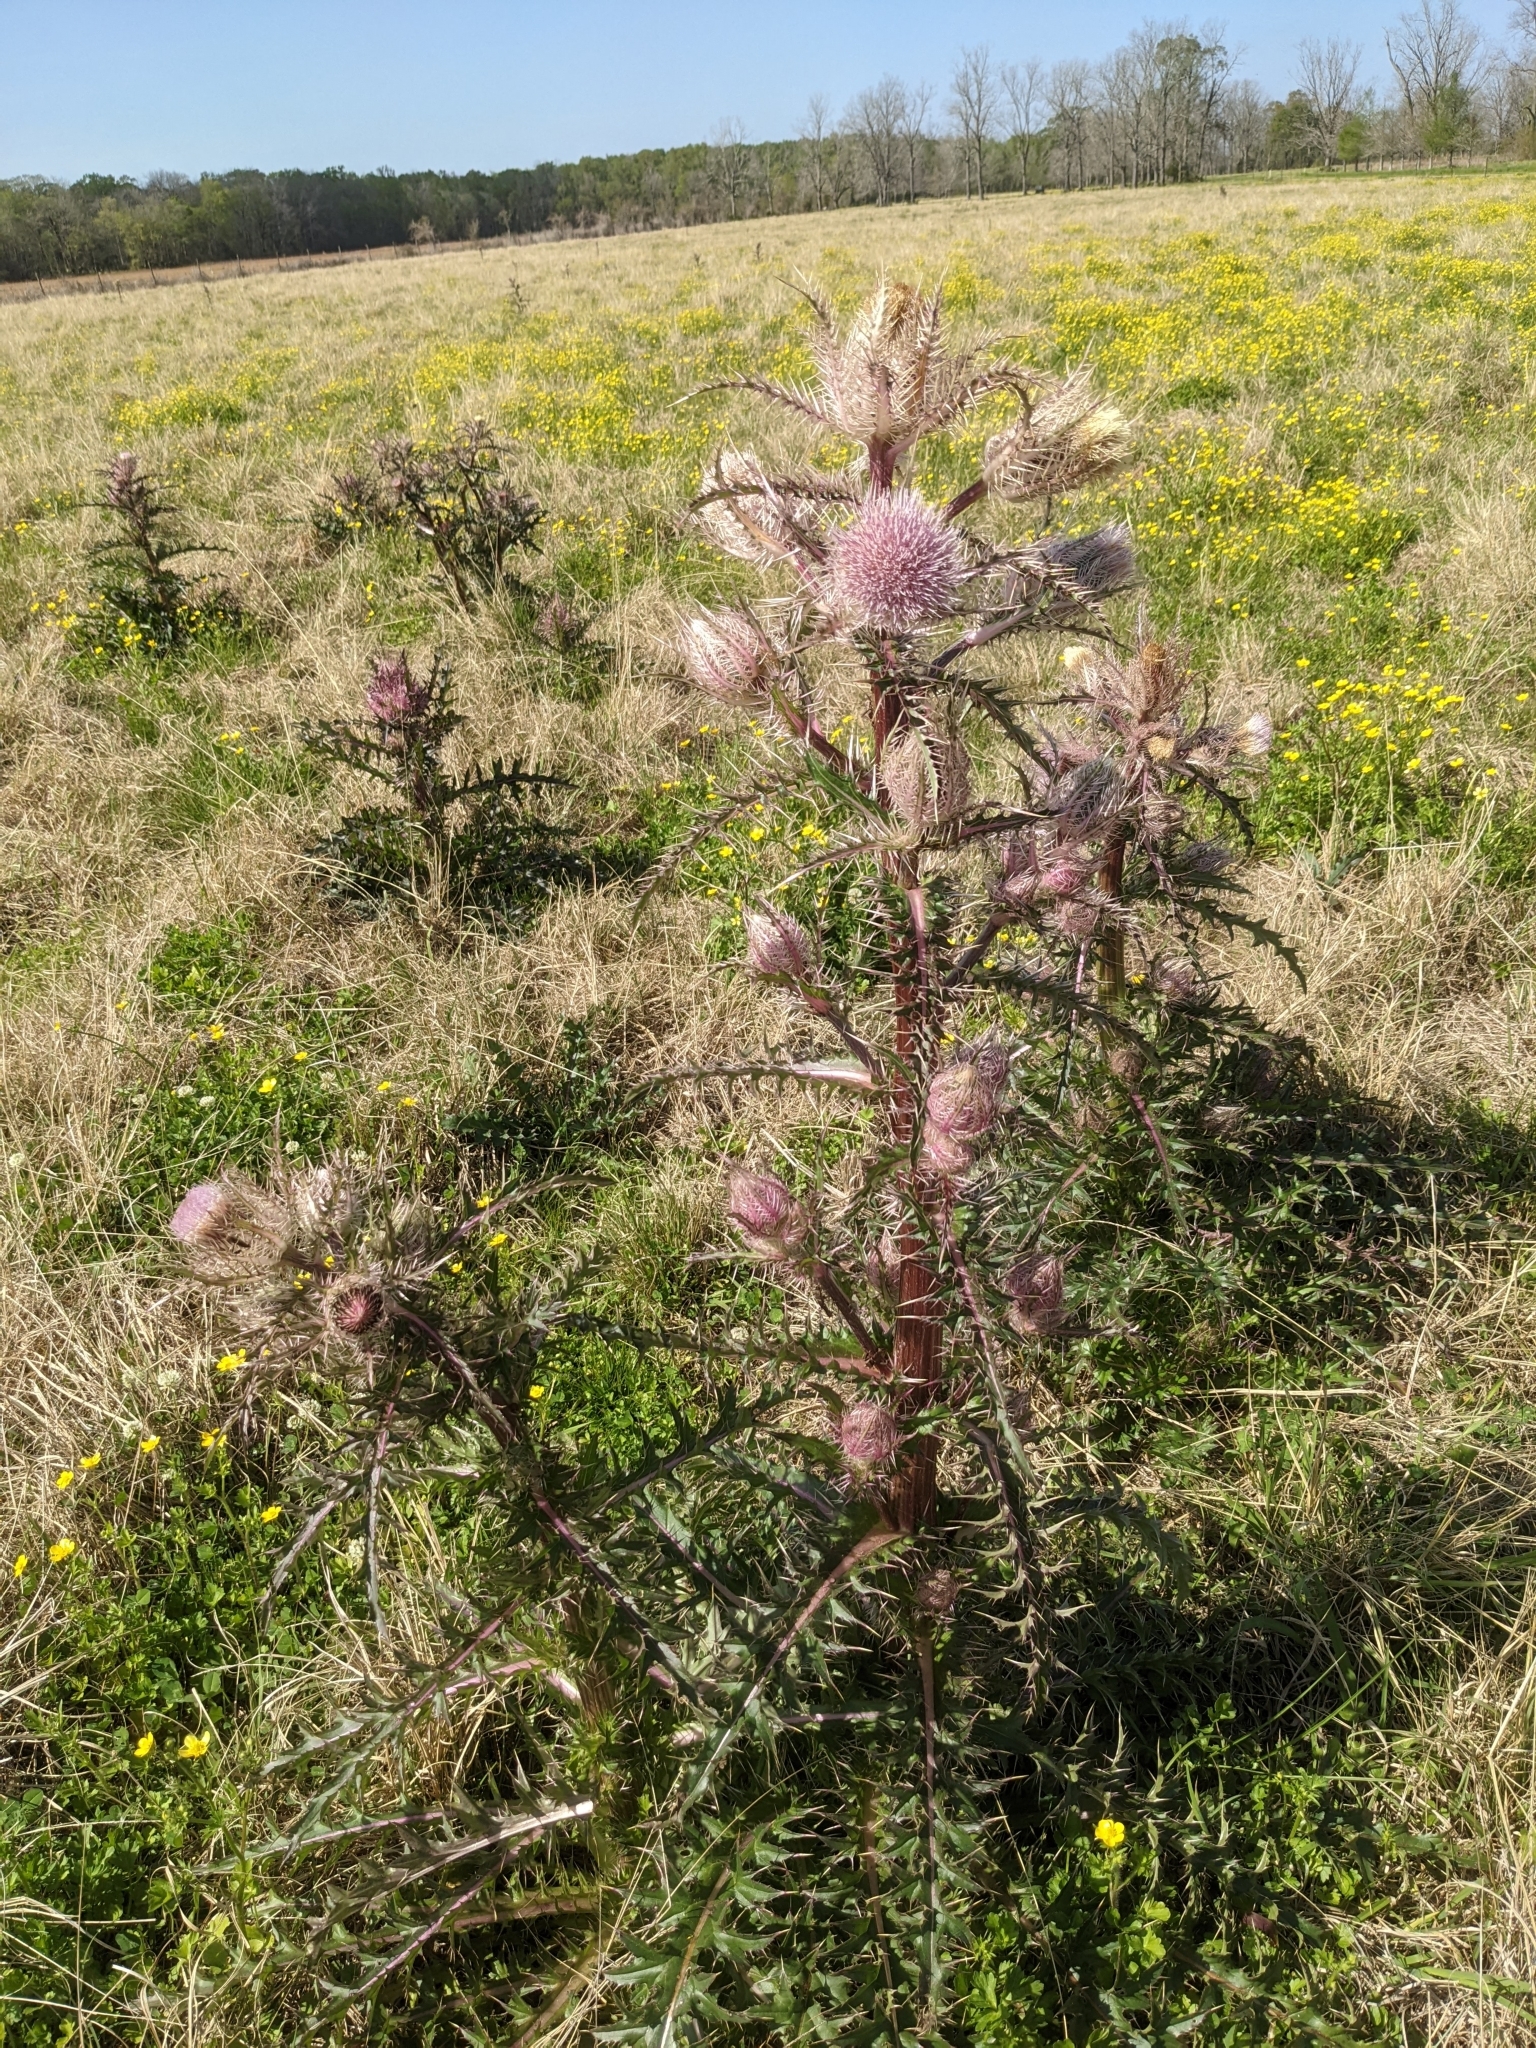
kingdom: Plantae
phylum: Tracheophyta
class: Magnoliopsida
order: Asterales
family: Asteraceae
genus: Cirsium
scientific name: Cirsium horridulum
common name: Bristly thistle
